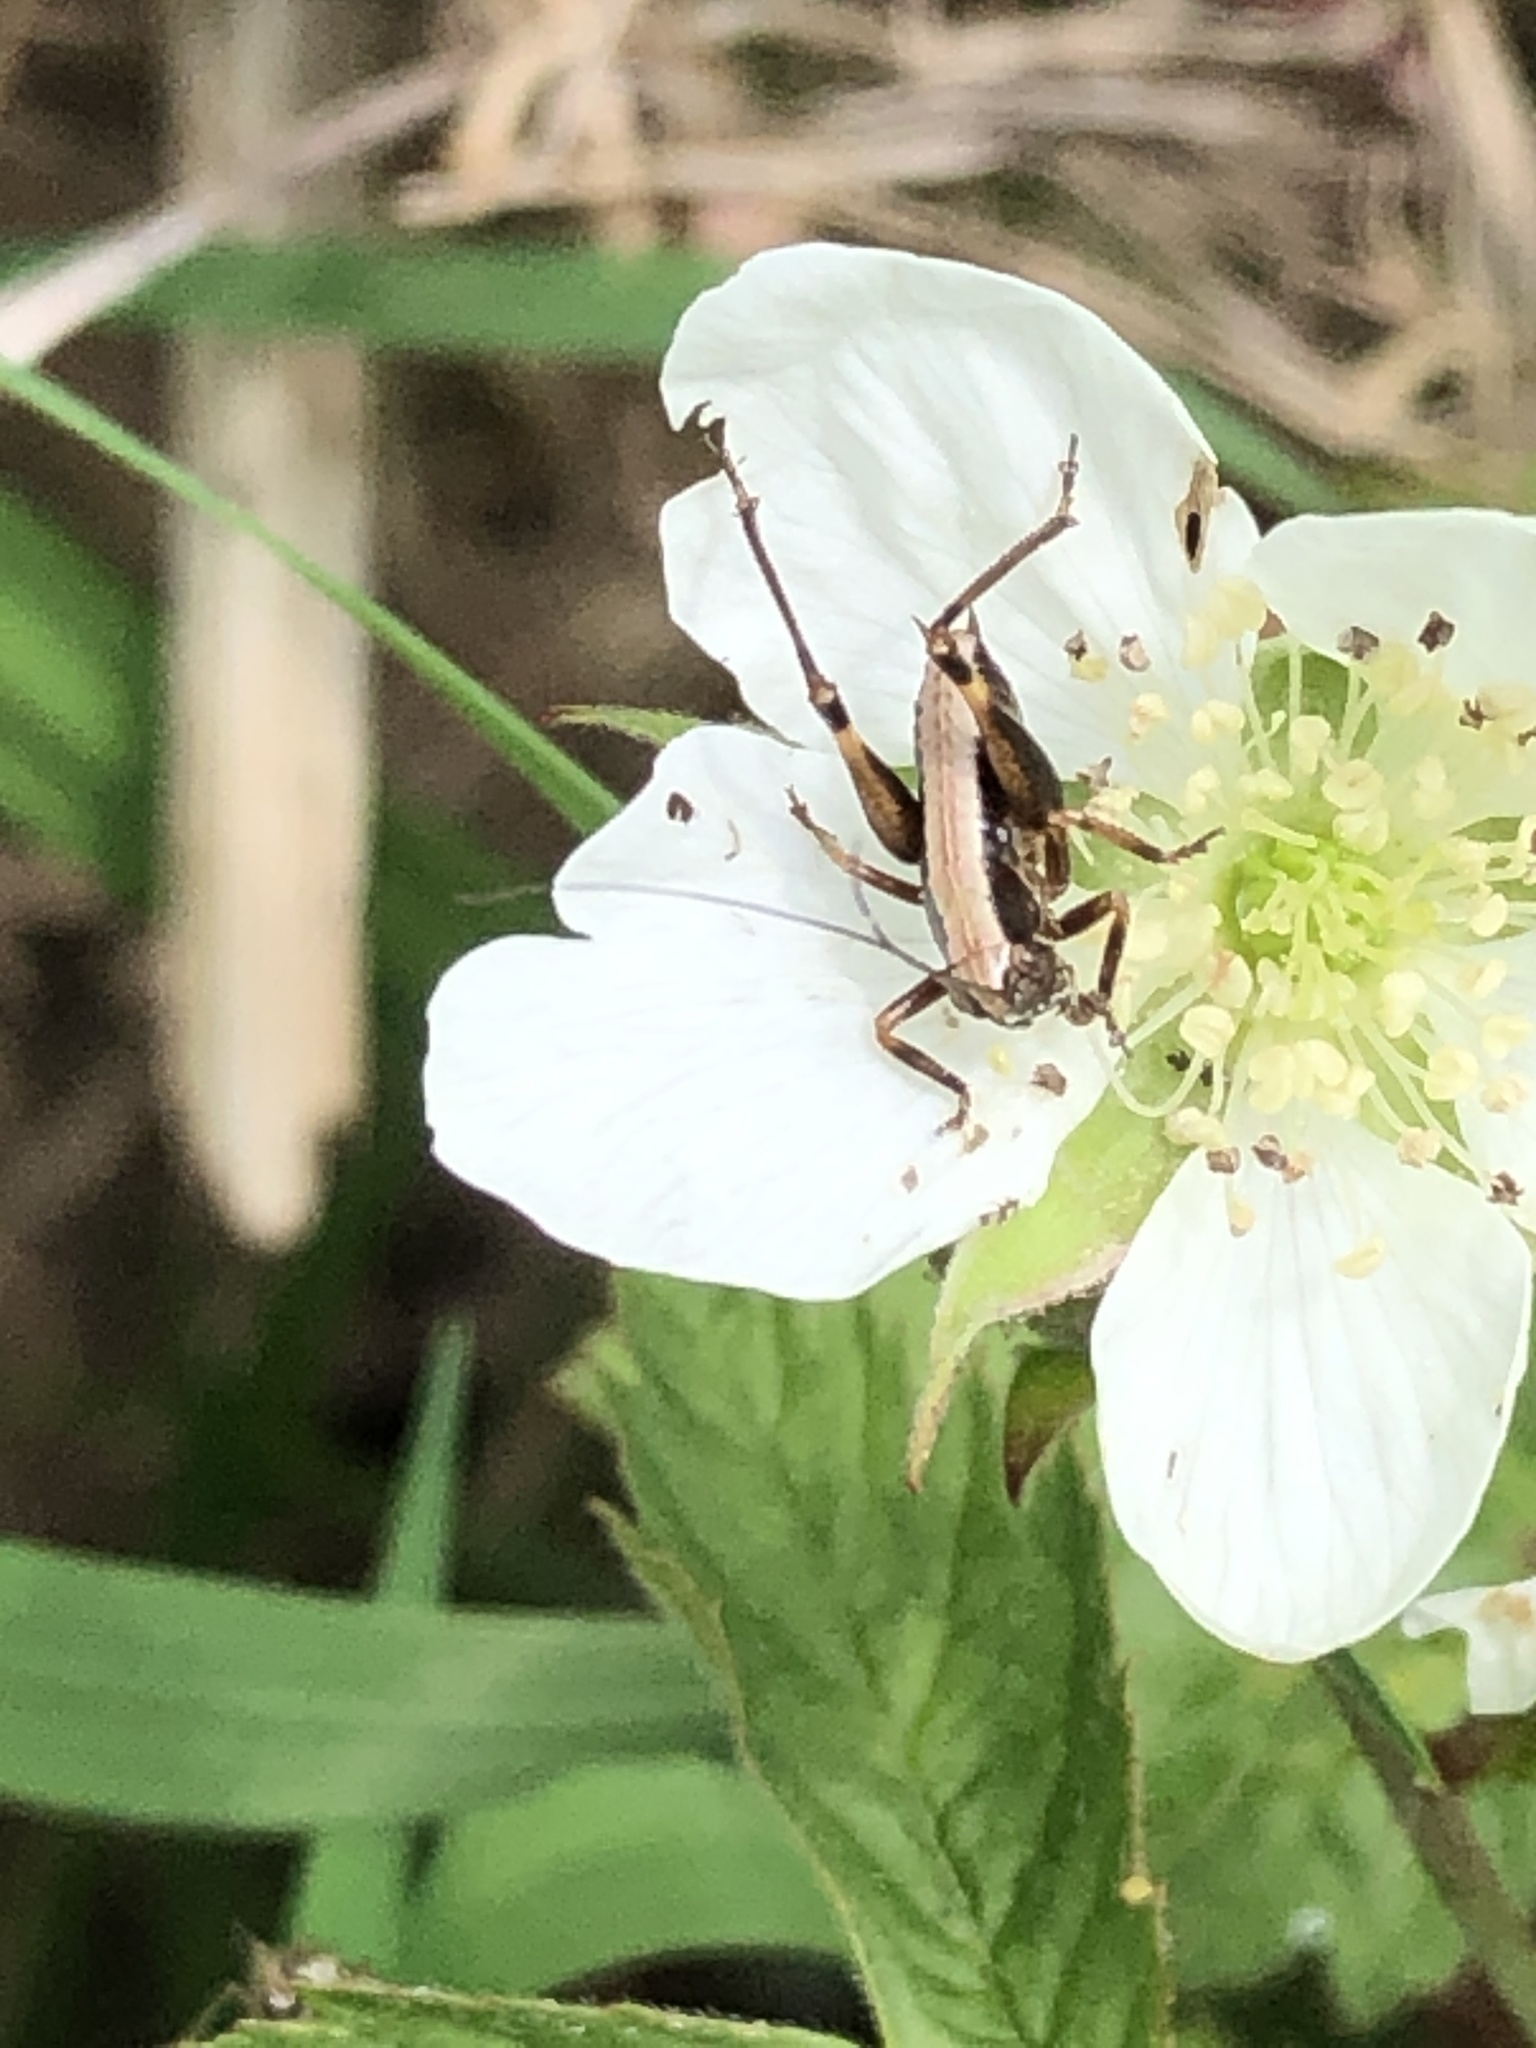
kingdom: Animalia
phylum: Arthropoda
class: Insecta
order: Orthoptera
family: Tettigoniidae
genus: Pholidoptera
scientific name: Pholidoptera griseoaptera
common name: Dark bush-cricket
